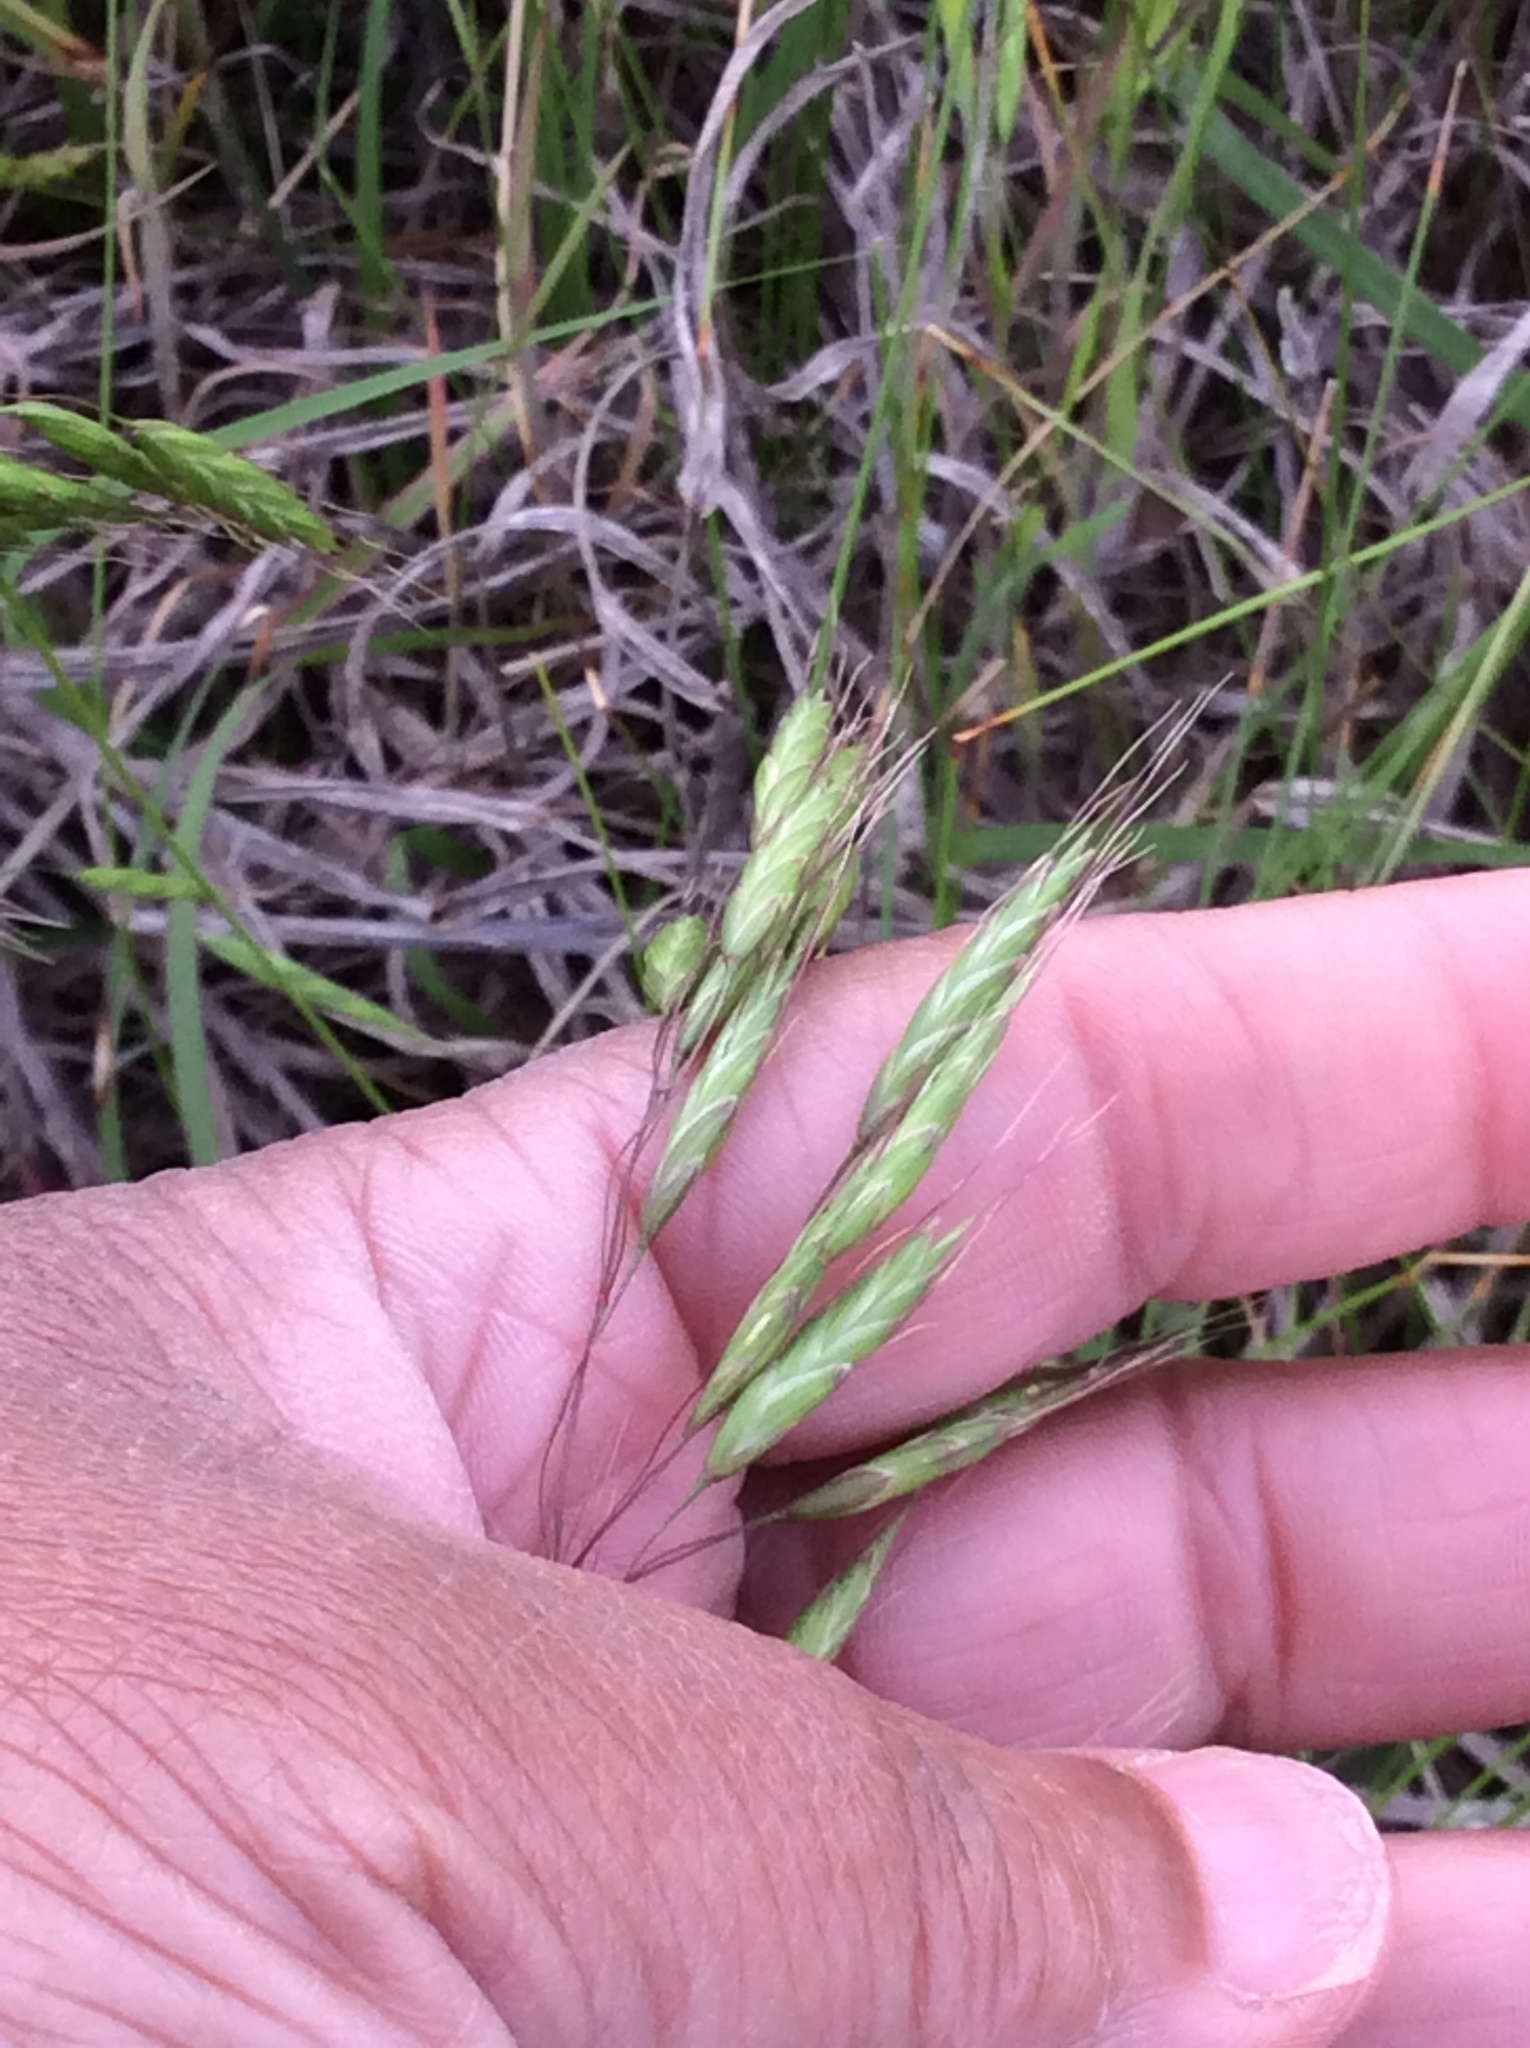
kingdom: Plantae
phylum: Tracheophyta
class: Liliopsida
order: Poales
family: Poaceae
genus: Bromus
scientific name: Bromus japonicus
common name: Japanese brome
